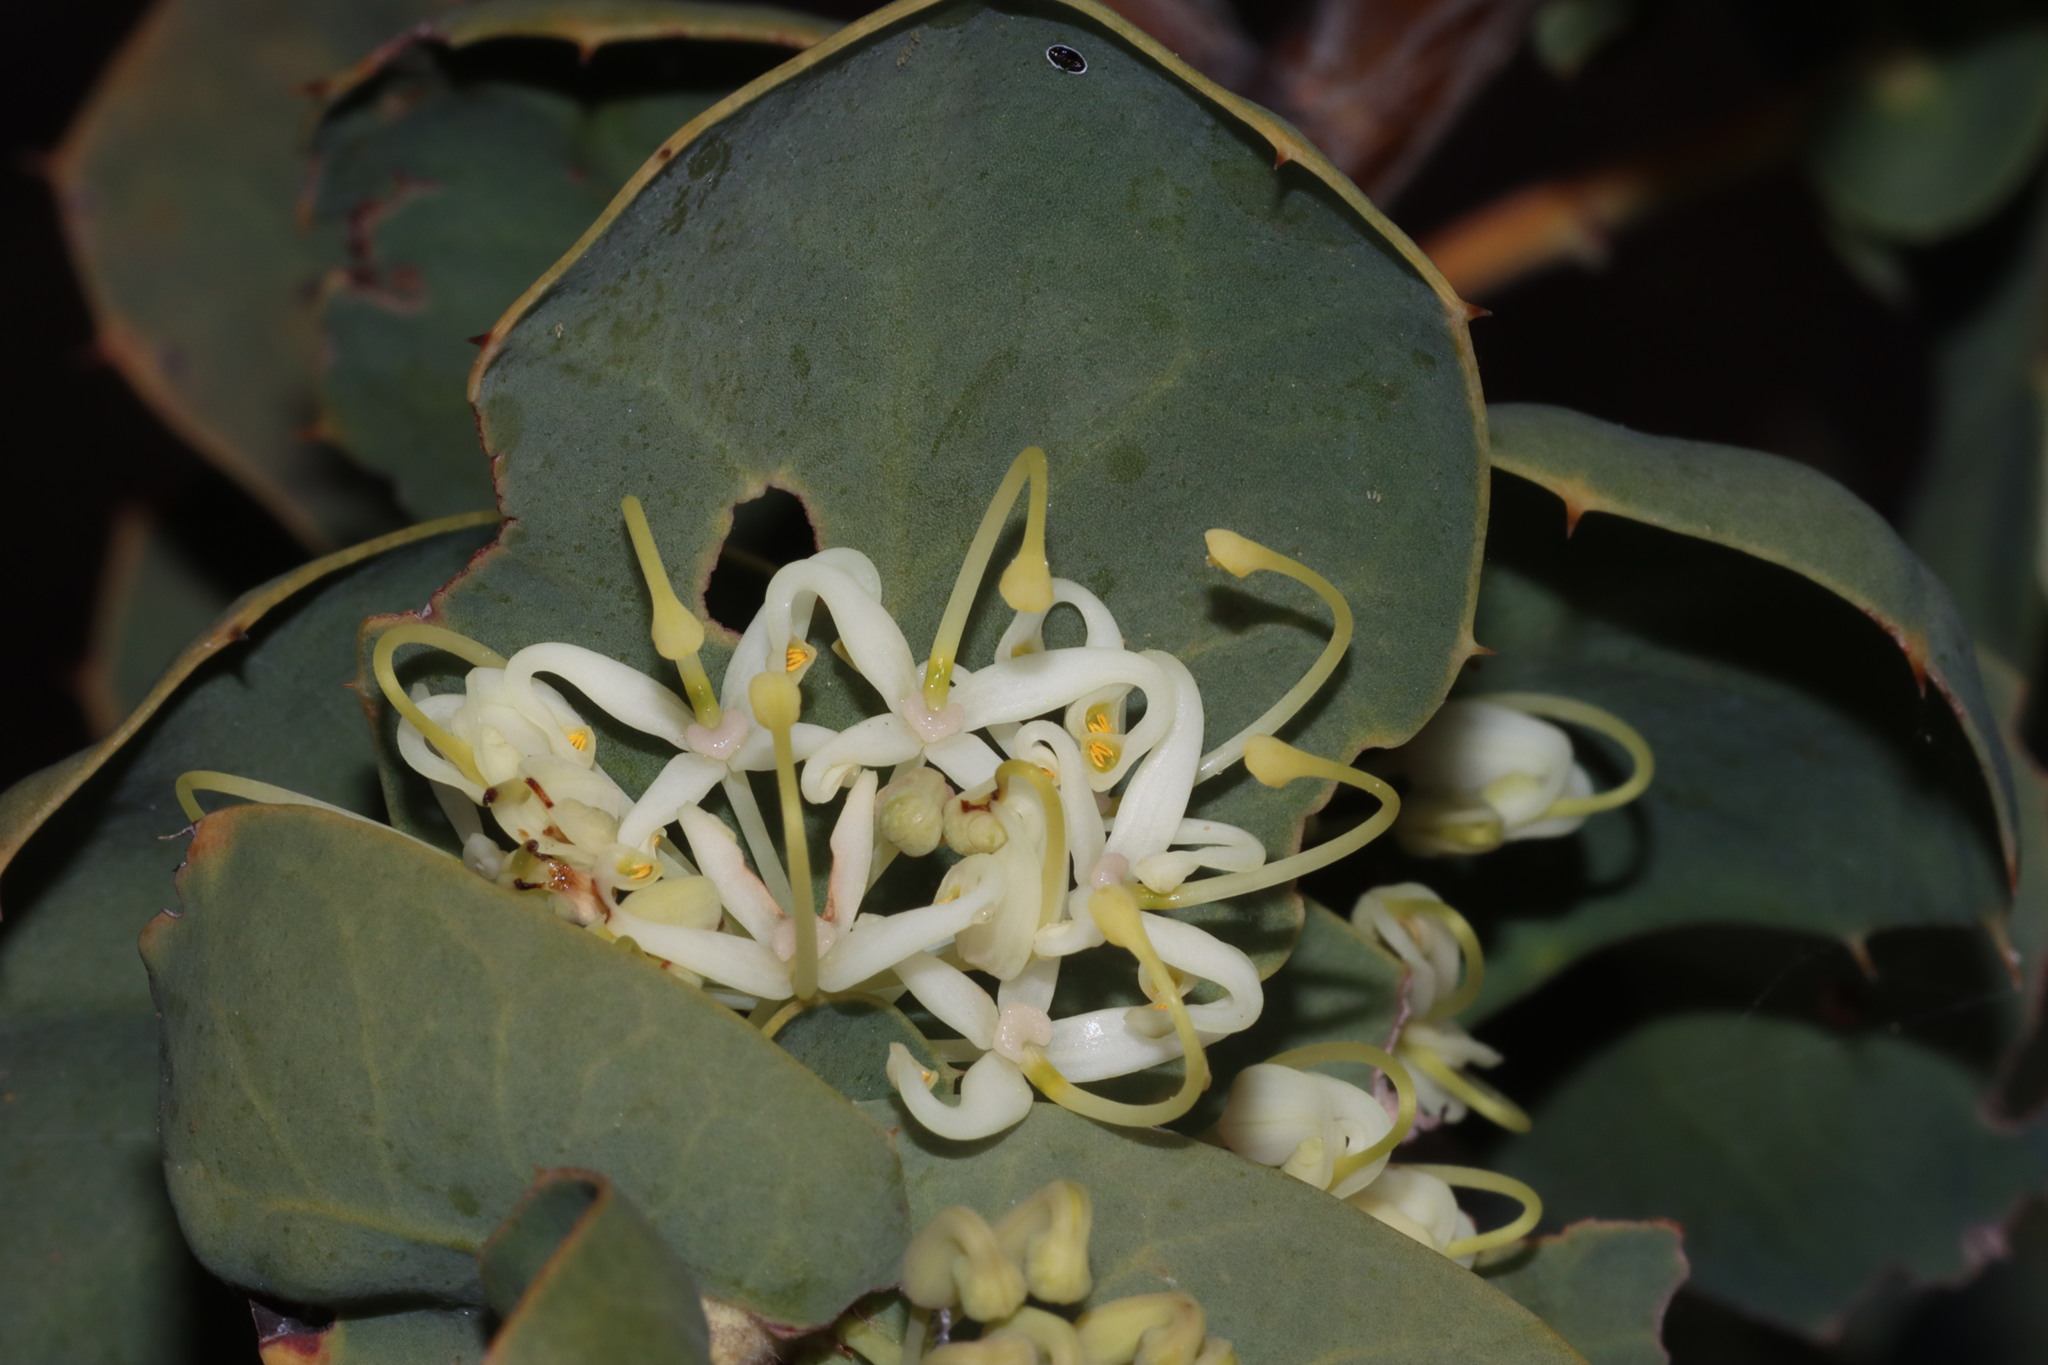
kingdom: Plantae
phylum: Tracheophyta
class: Magnoliopsida
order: Proteales
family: Proteaceae
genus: Hakea
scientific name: Hakea prostrata
